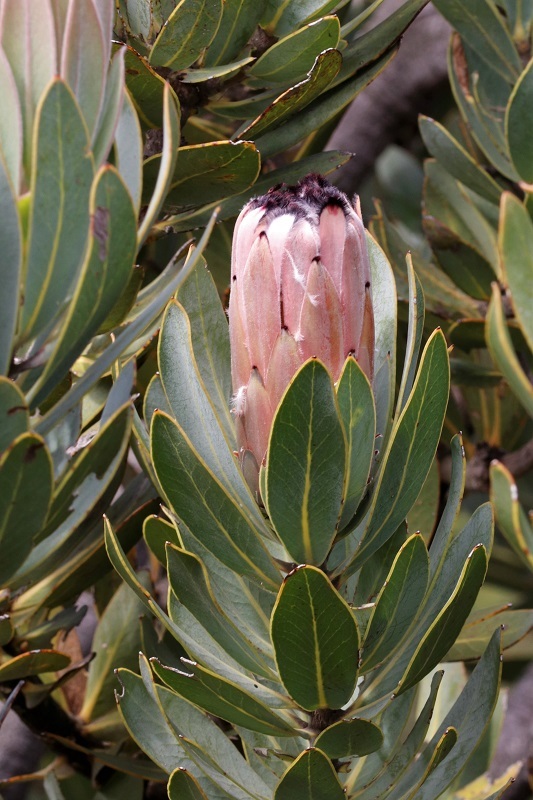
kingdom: Plantae
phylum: Tracheophyta
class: Magnoliopsida
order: Proteales
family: Proteaceae
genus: Protea
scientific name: Protea laurifolia
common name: Grey-leaf sugarbsh
